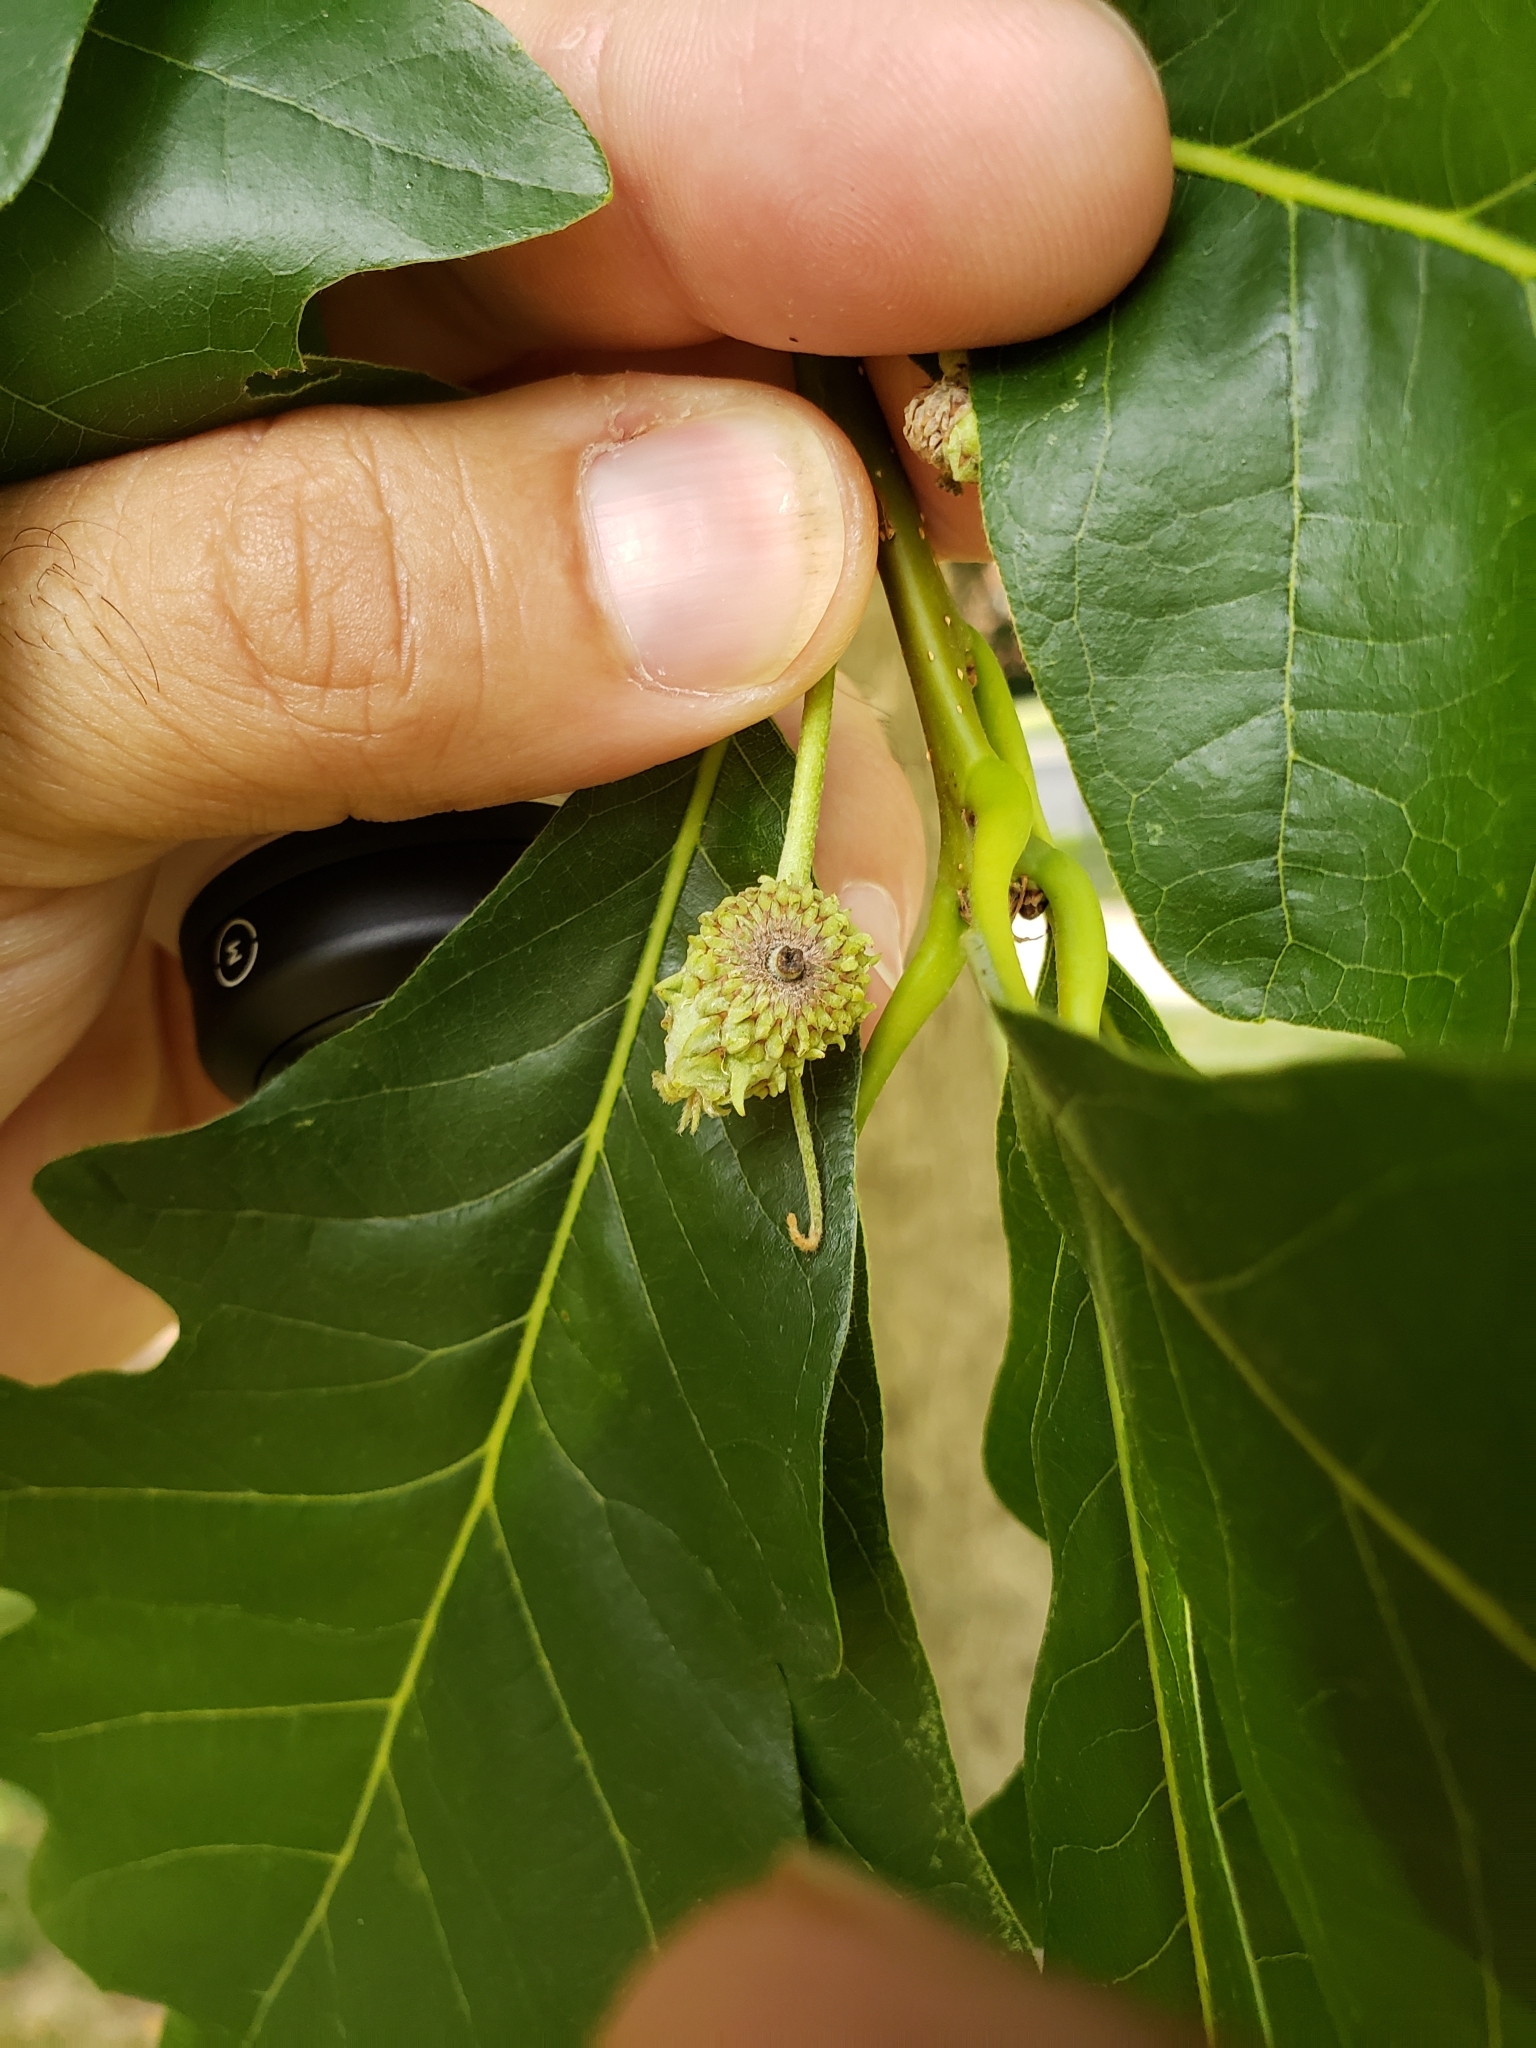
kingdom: Animalia
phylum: Arthropoda
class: Insecta
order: Hymenoptera
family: Cynipidae
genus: Andricus
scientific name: Andricus
